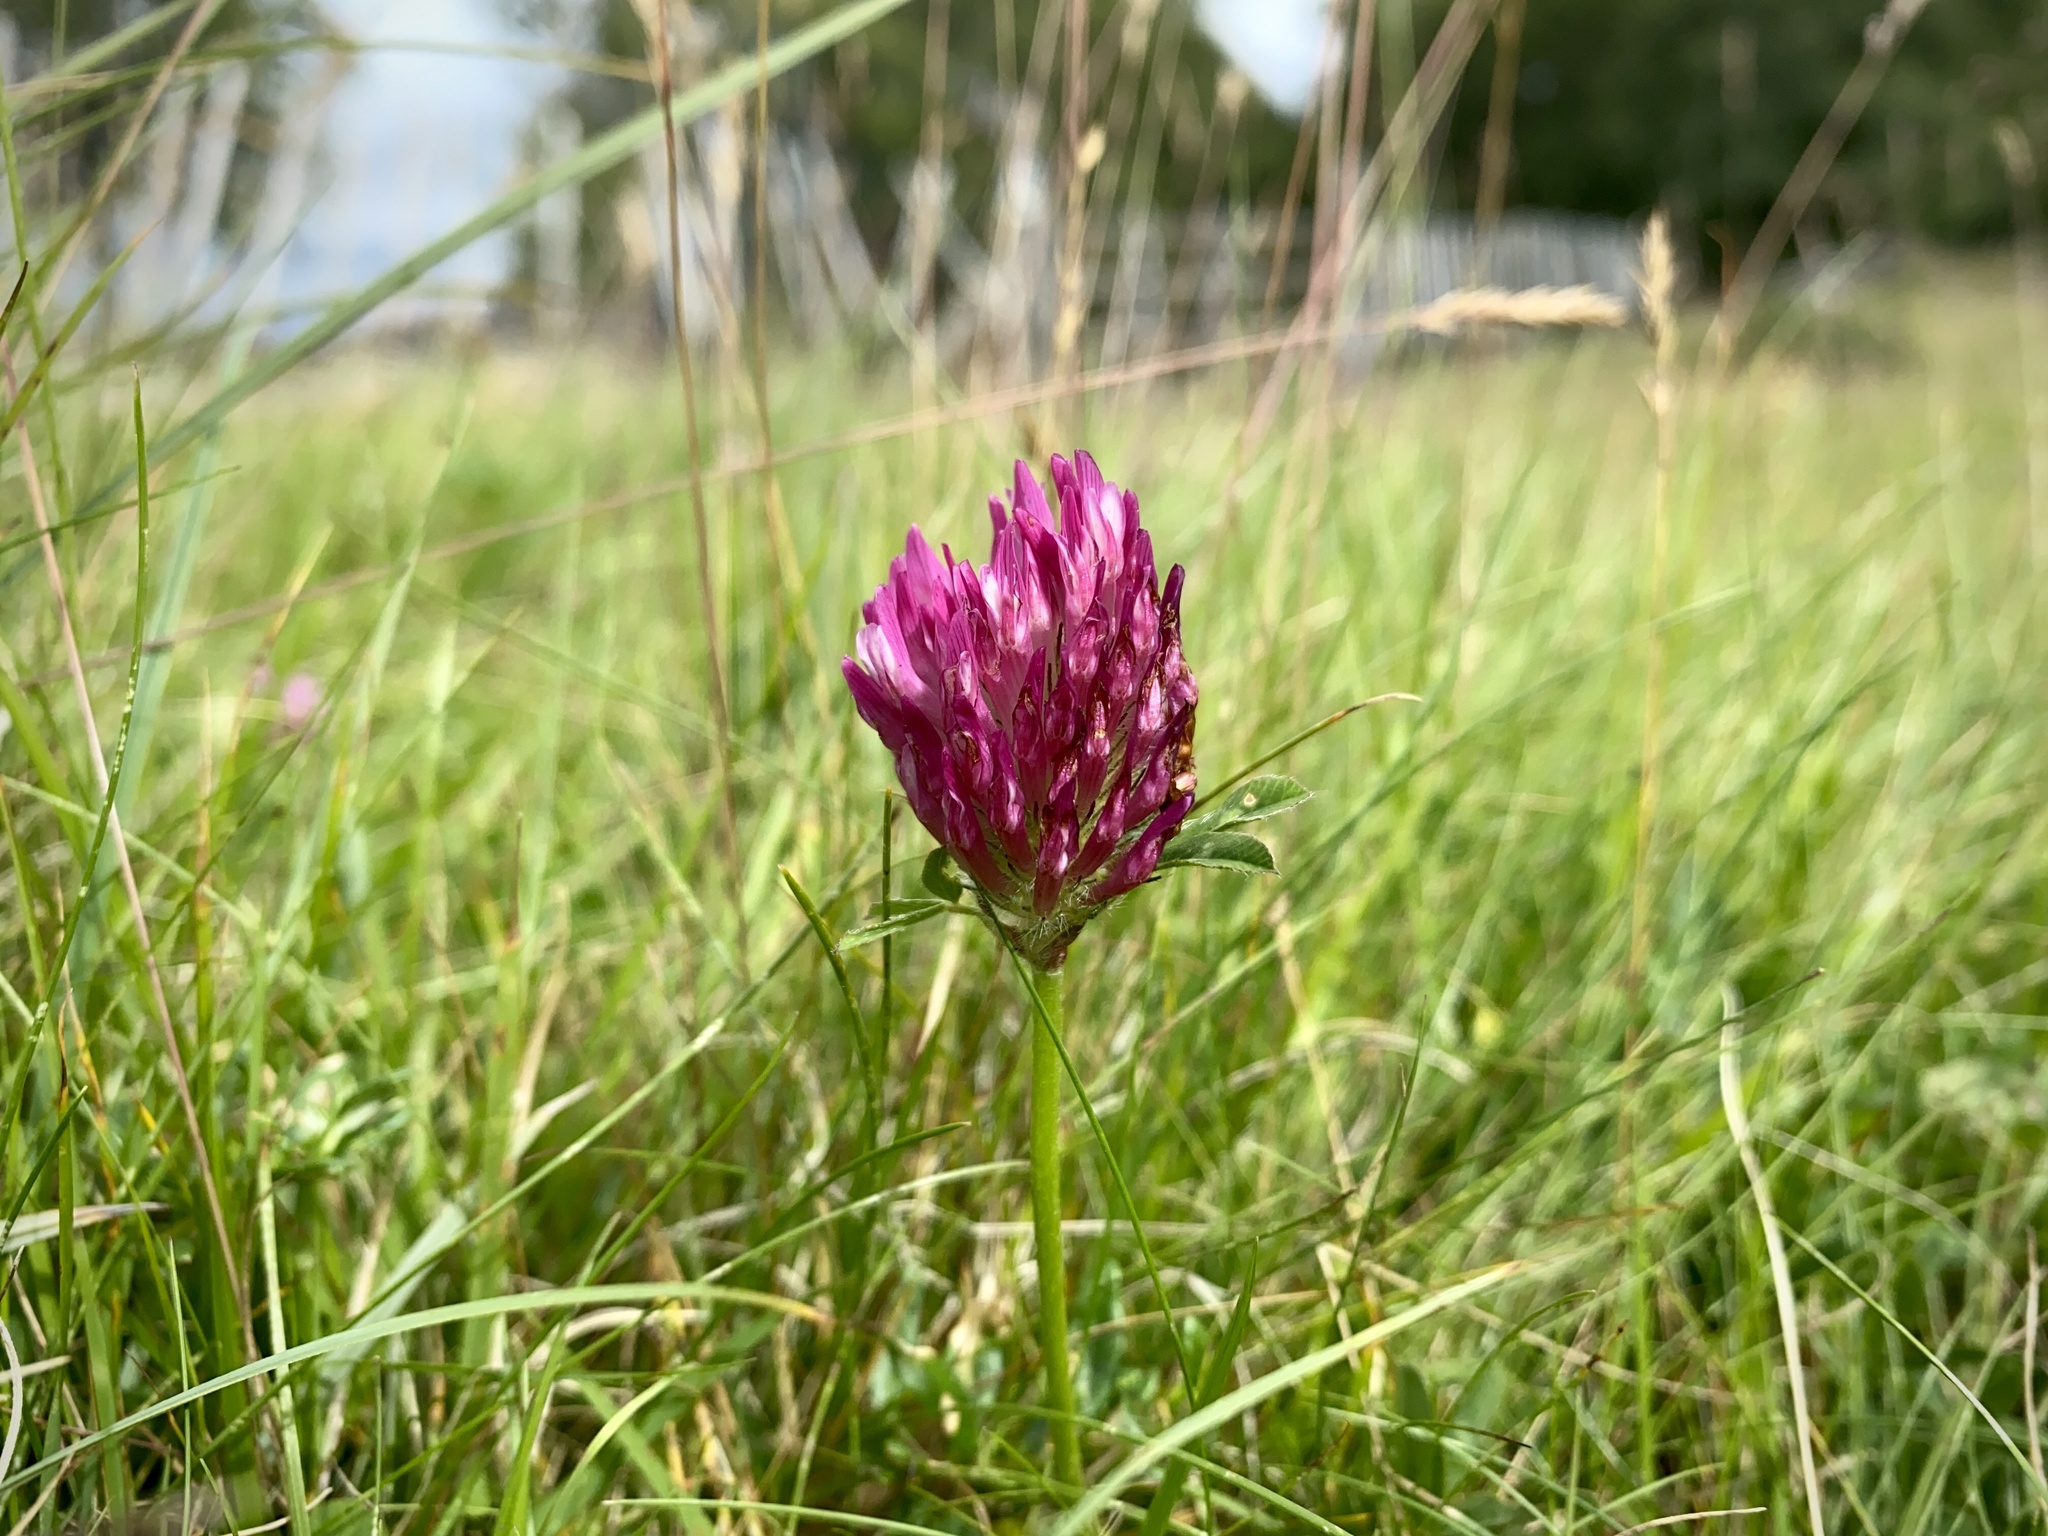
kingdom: Plantae
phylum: Tracheophyta
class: Magnoliopsida
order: Fabales
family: Fabaceae
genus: Trifolium
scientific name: Trifolium pratense
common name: Red clover
